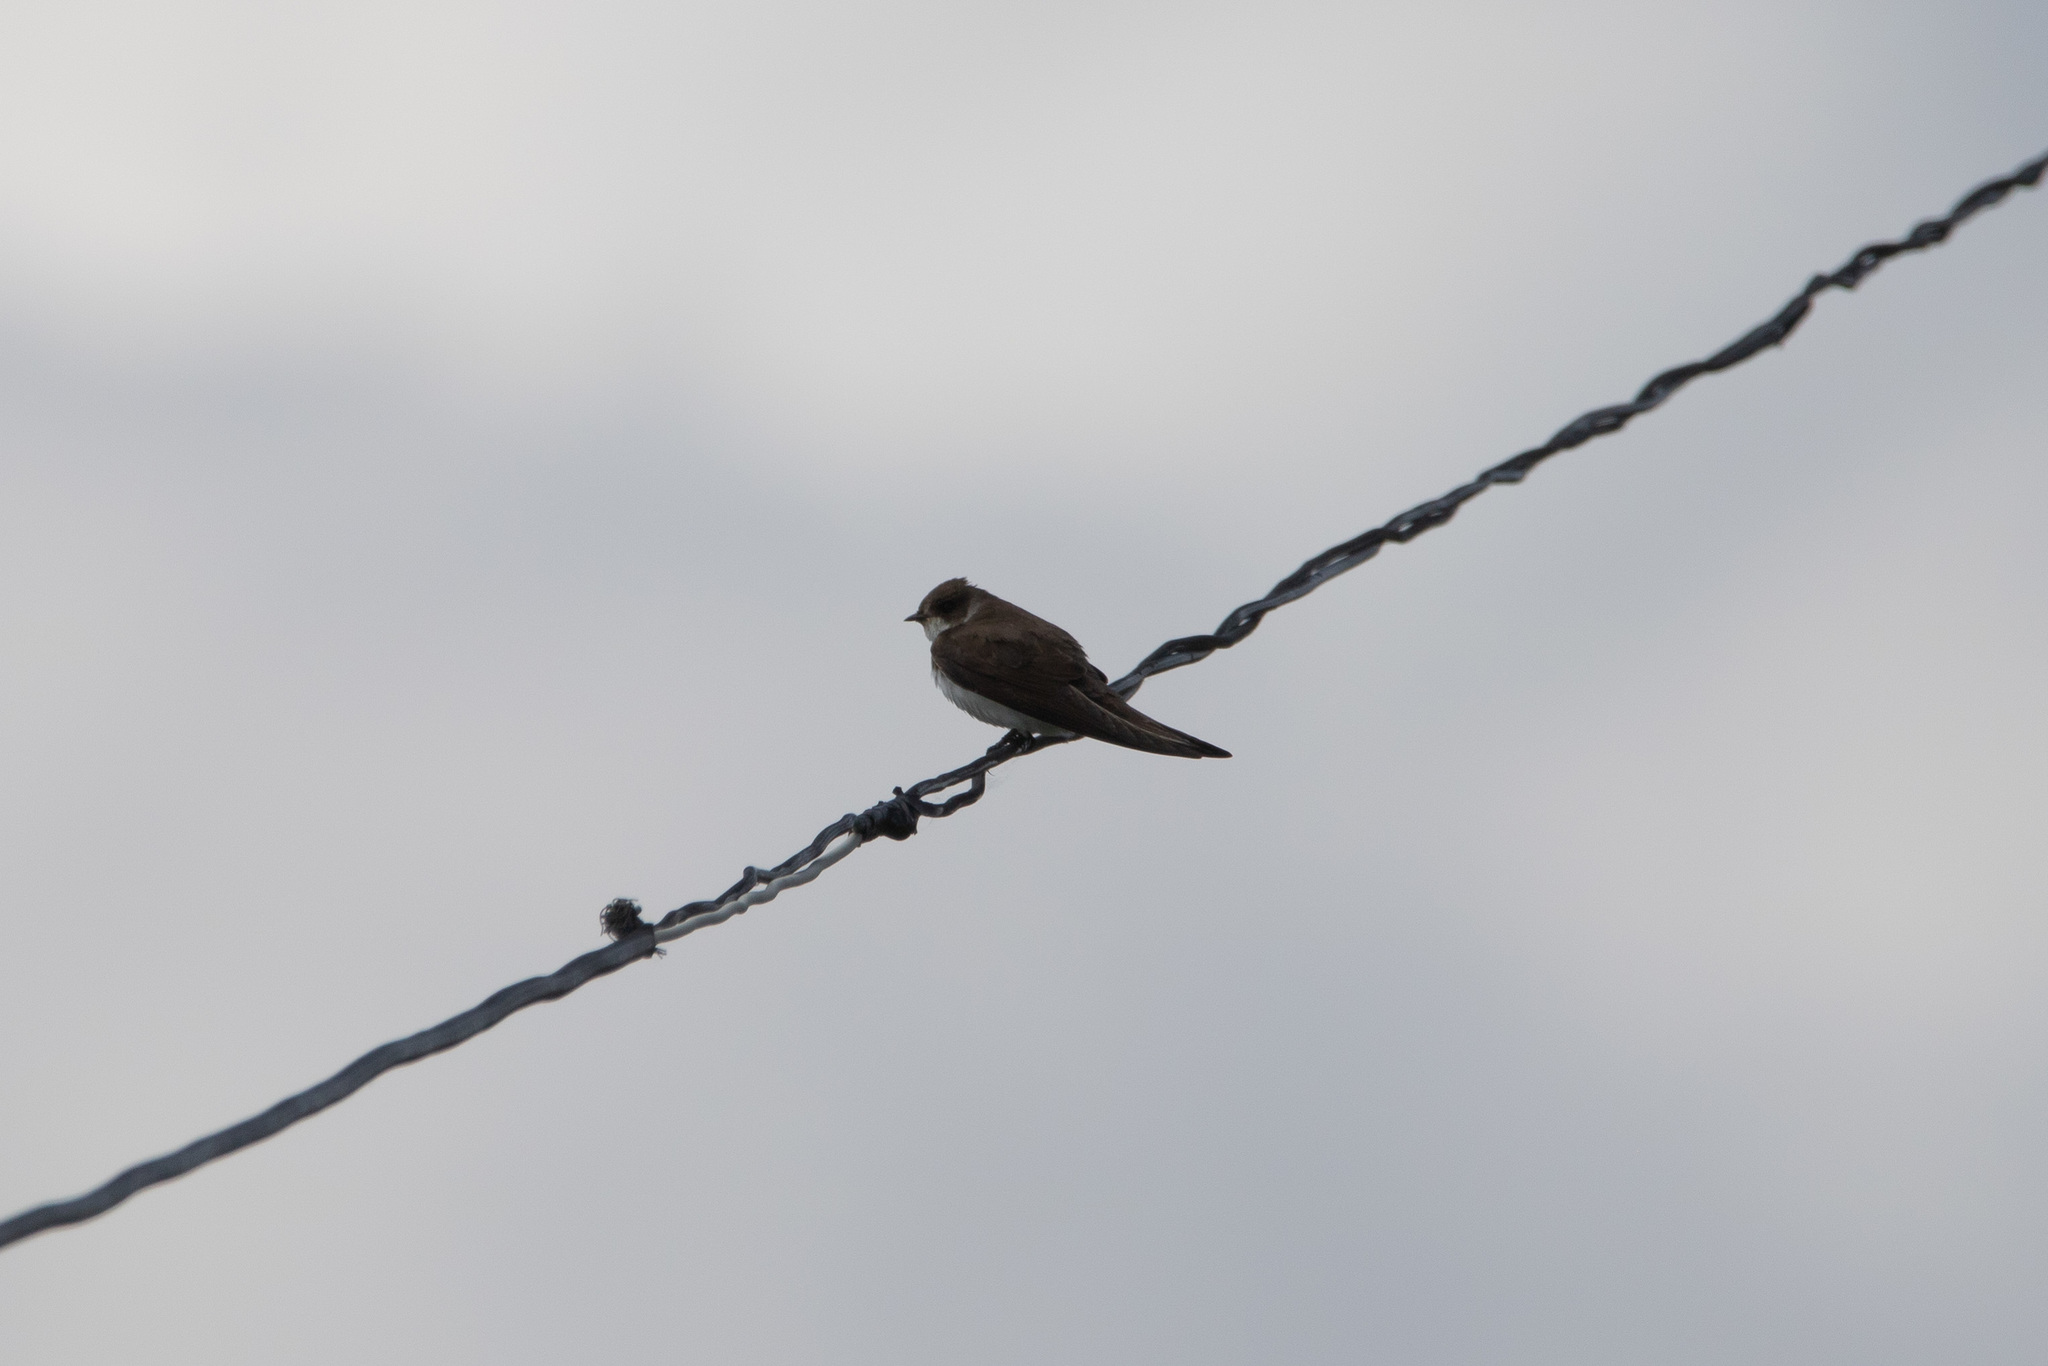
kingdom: Animalia
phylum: Chordata
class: Aves
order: Passeriformes
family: Hirundinidae
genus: Riparia
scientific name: Riparia riparia
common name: Sand martin
